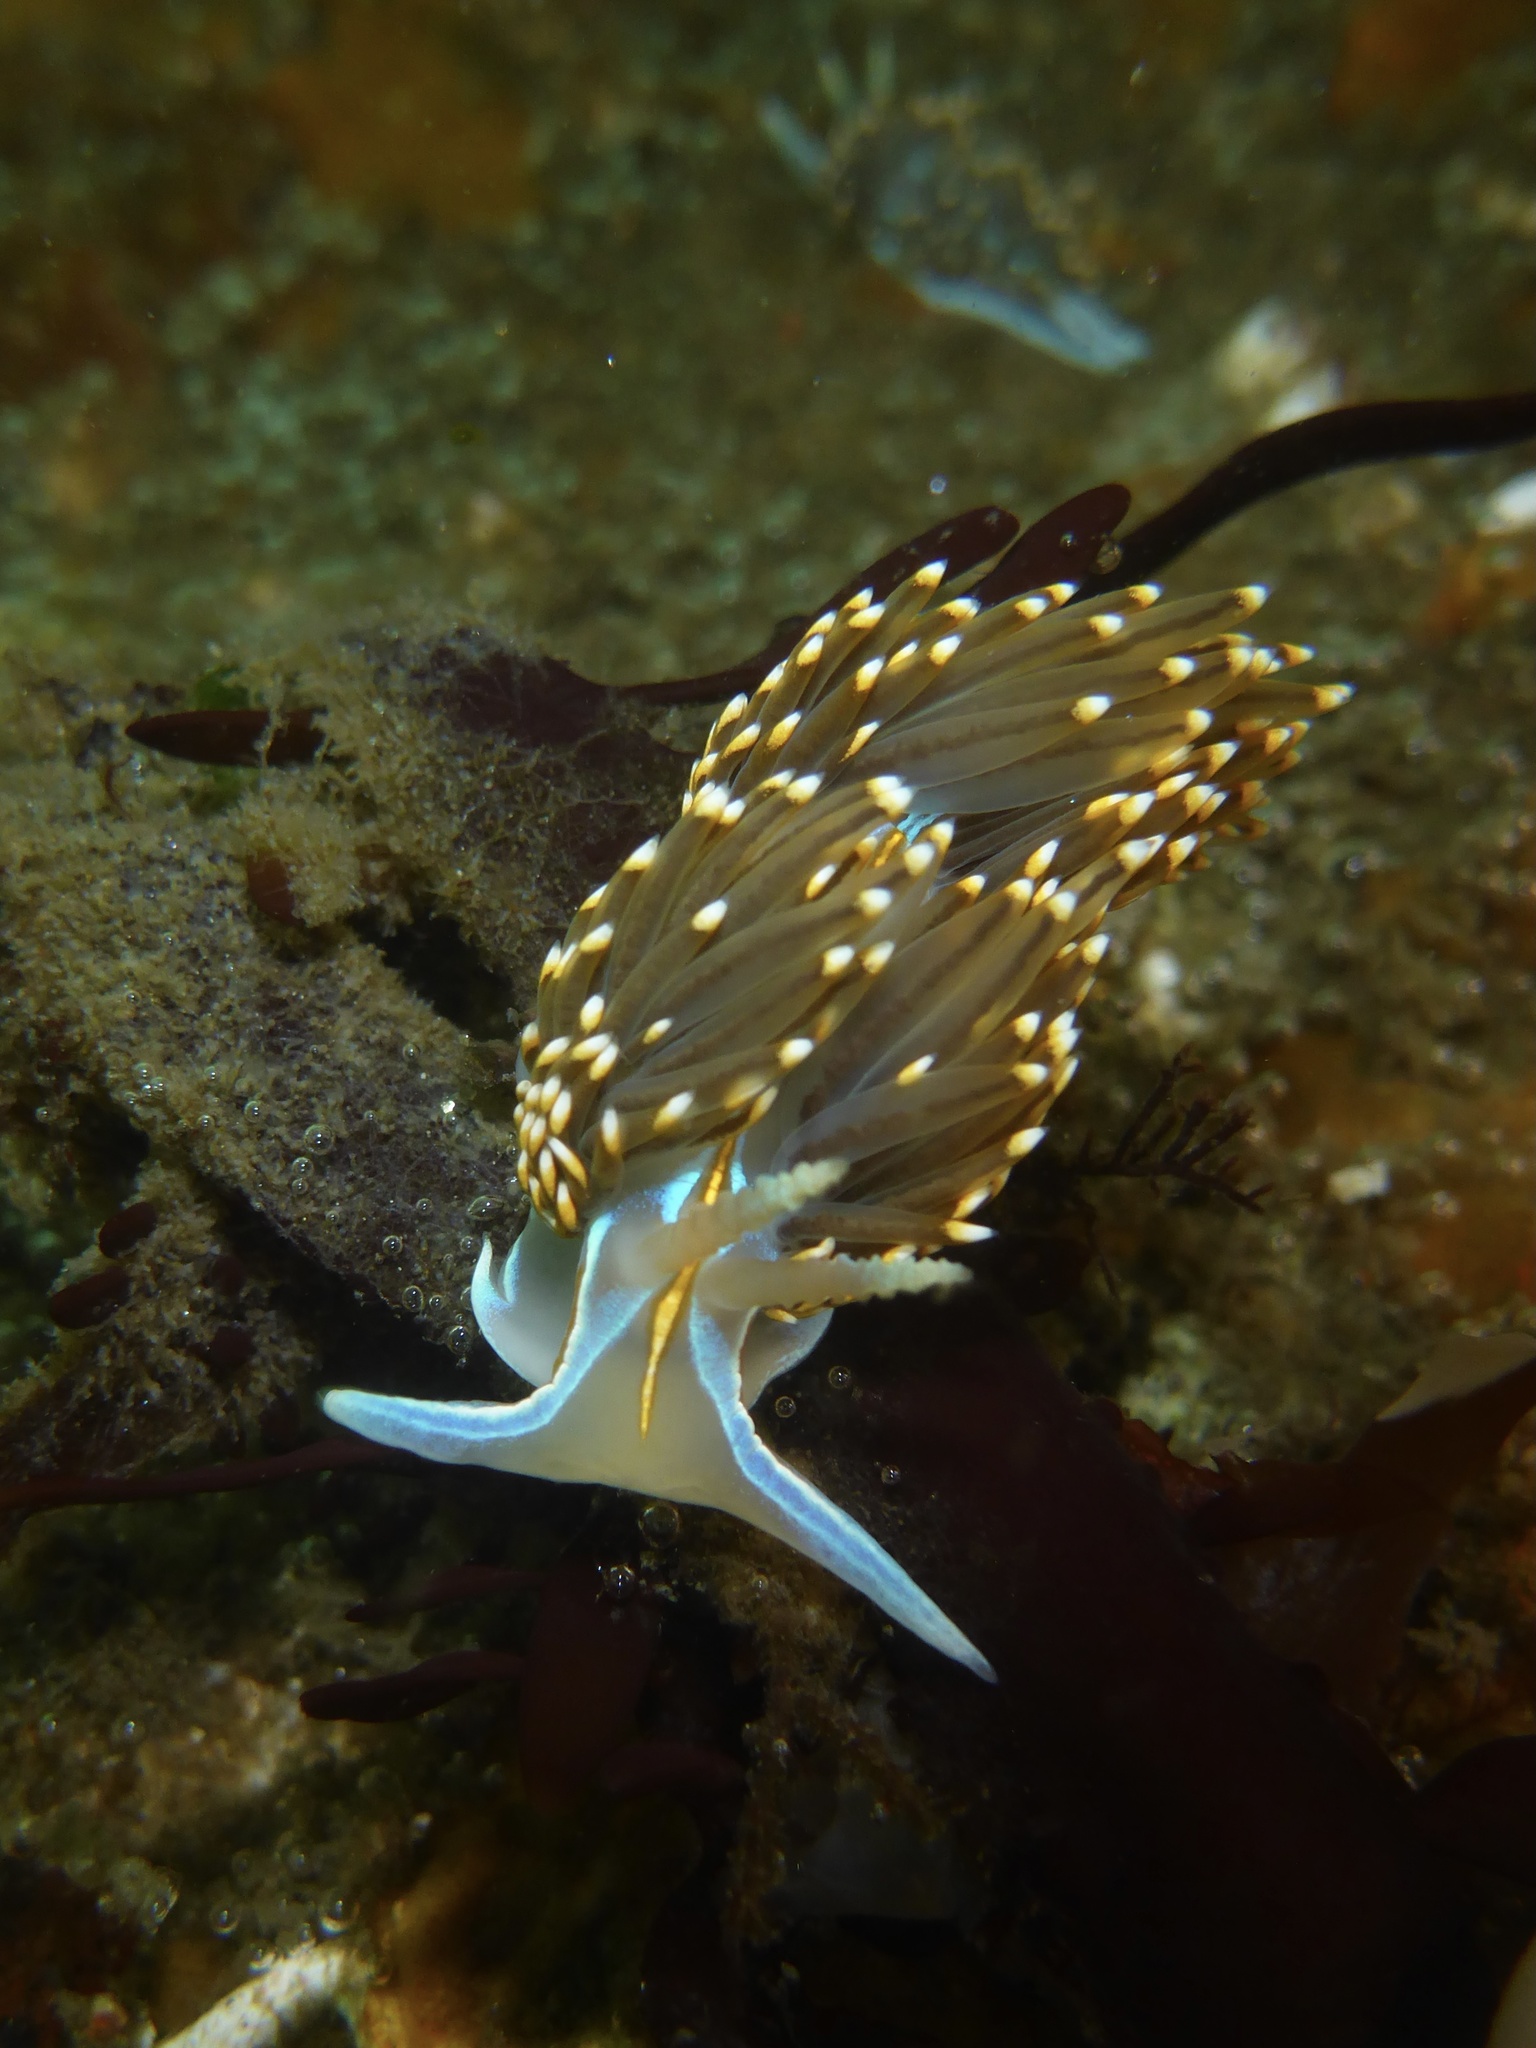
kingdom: Animalia
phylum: Mollusca
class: Gastropoda
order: Nudibranchia
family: Myrrhinidae
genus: Hermissenda
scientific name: Hermissenda opalescens
